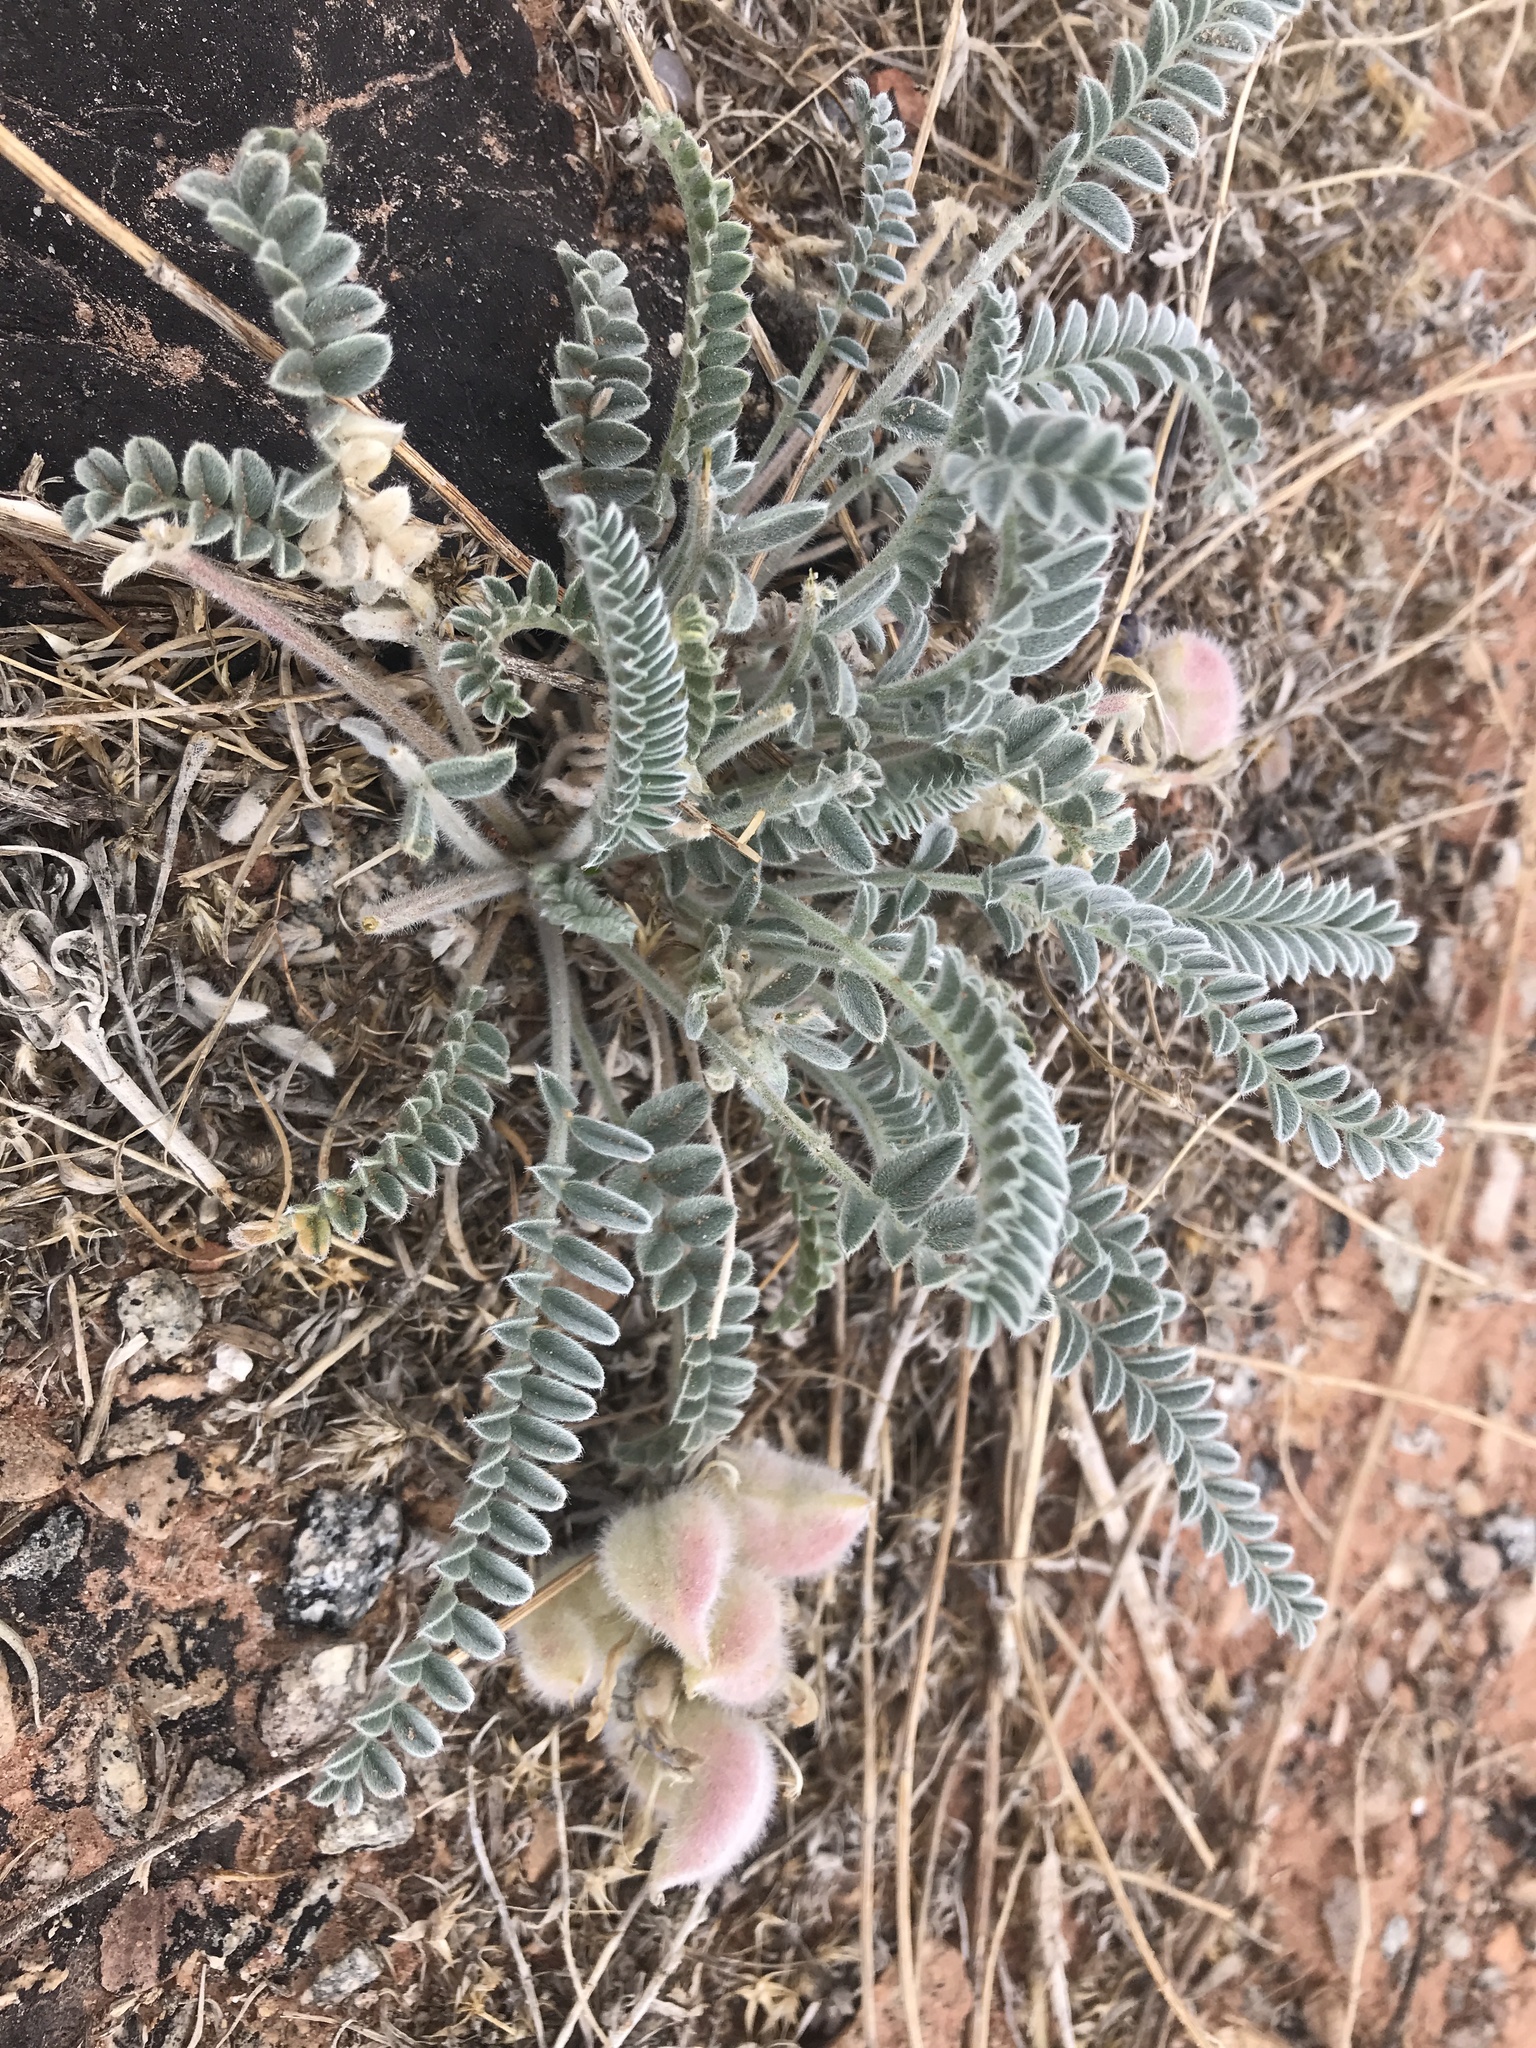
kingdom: Plantae
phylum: Tracheophyta
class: Magnoliopsida
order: Fabales
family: Fabaceae
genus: Astragalus
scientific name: Astragalus mollissimus
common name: Woolly locoweed
